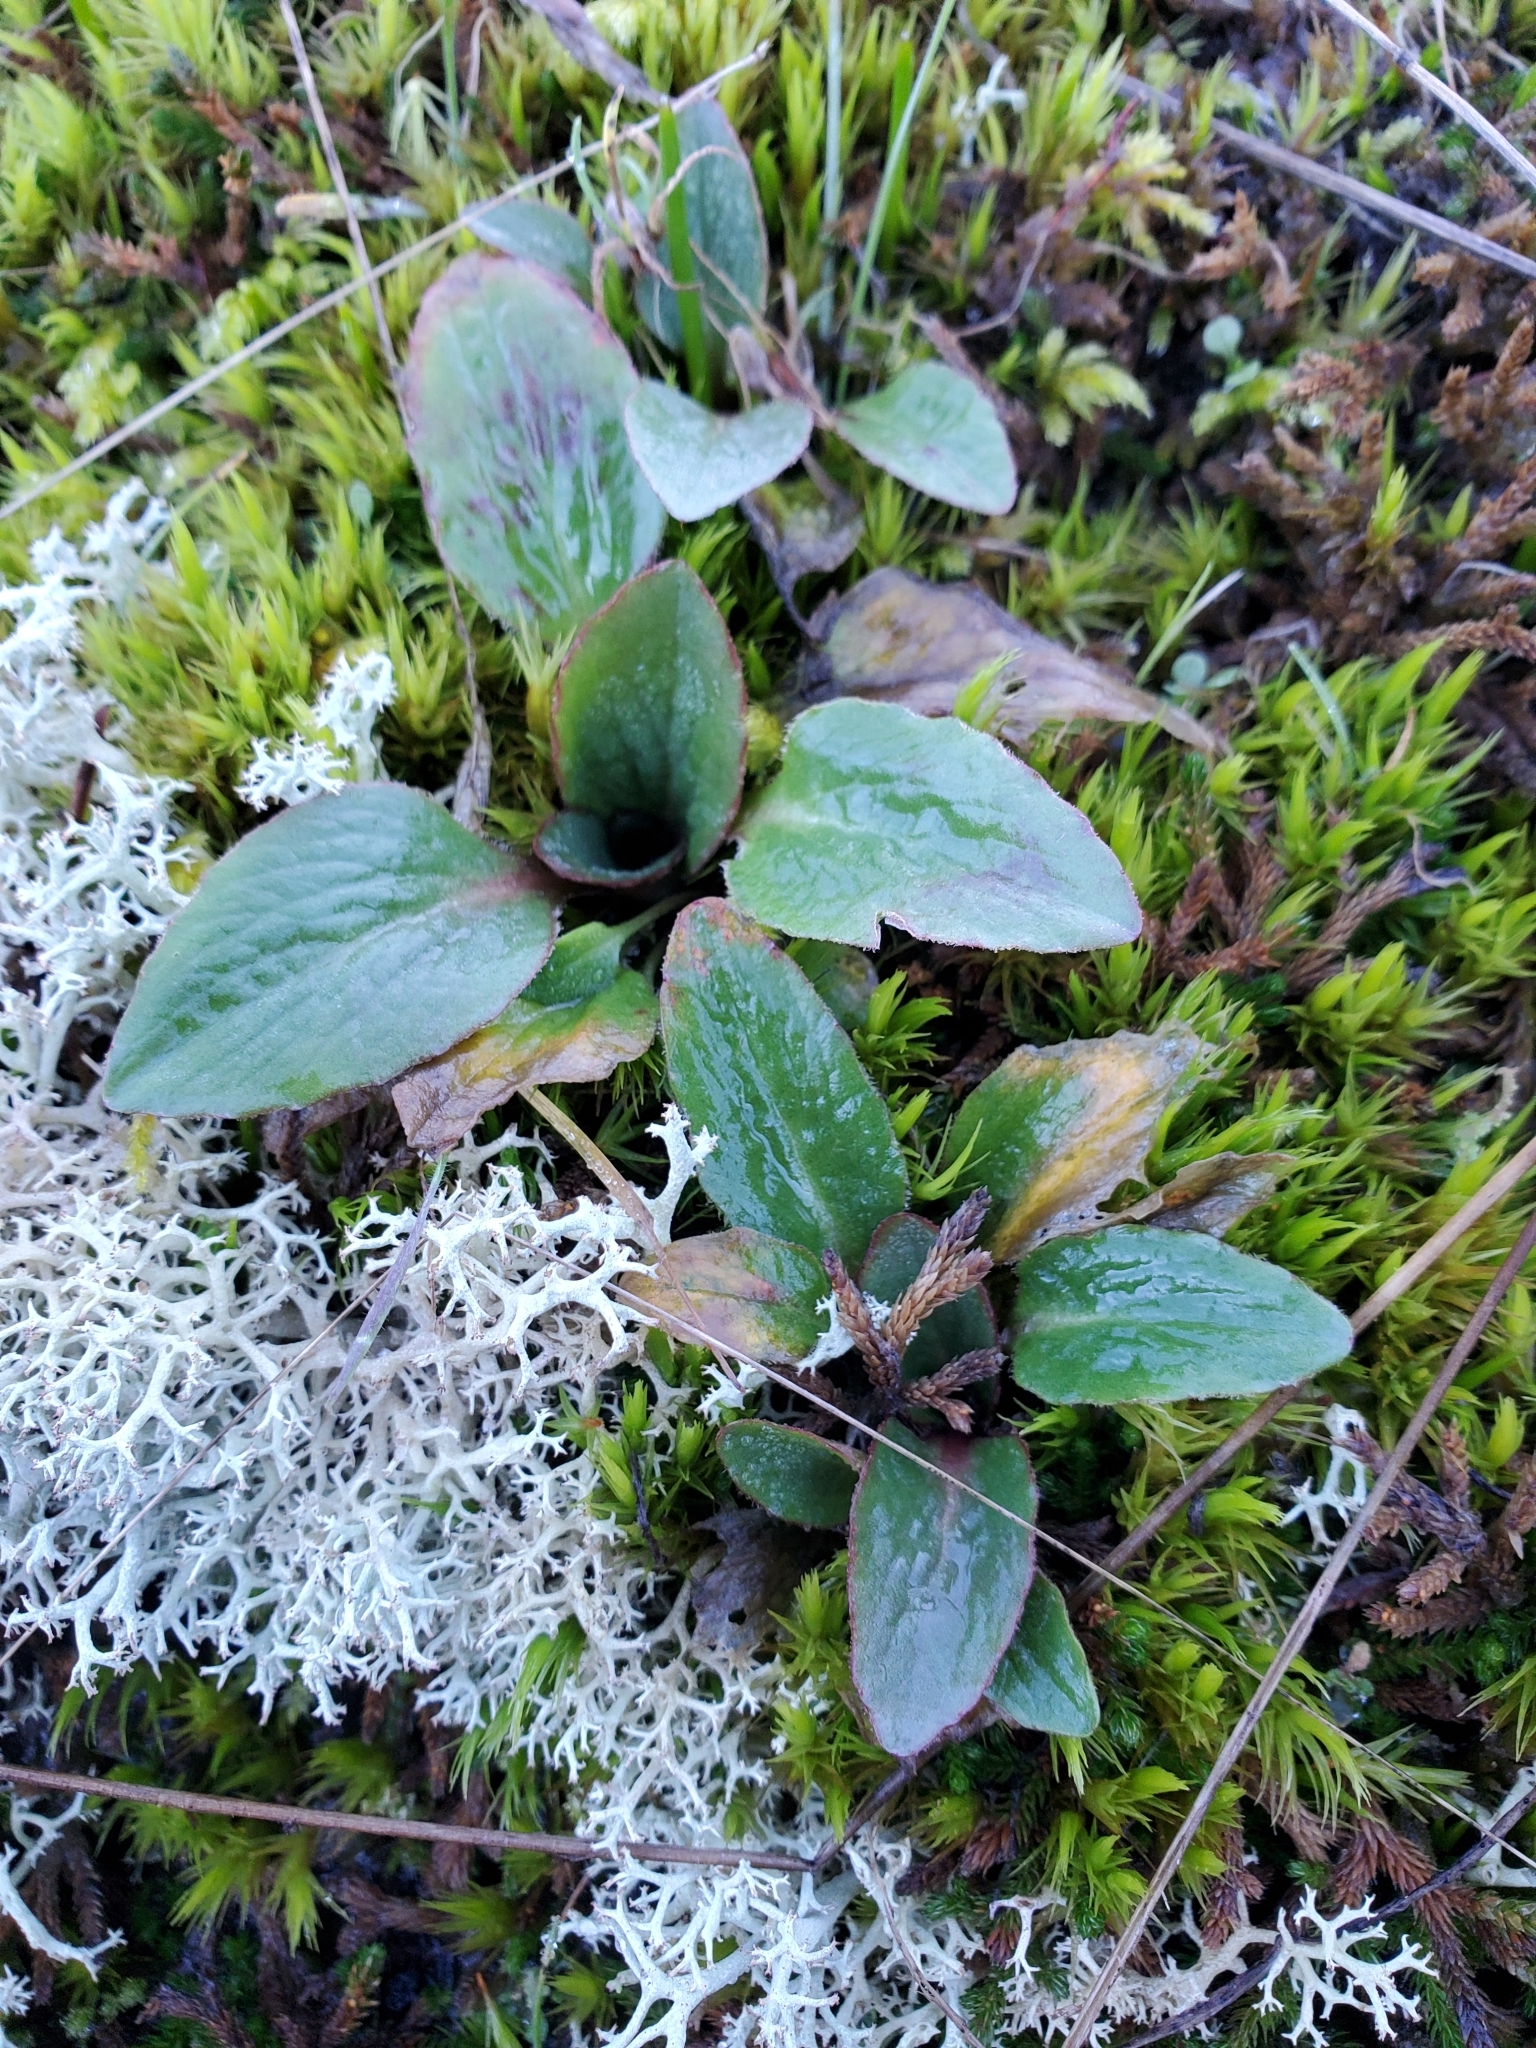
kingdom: Plantae
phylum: Tracheophyta
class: Magnoliopsida
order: Saxifragales
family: Saxifragaceae
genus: Micranthes
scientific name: Micranthes integrifolia
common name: Wholeleaf saxifrage
